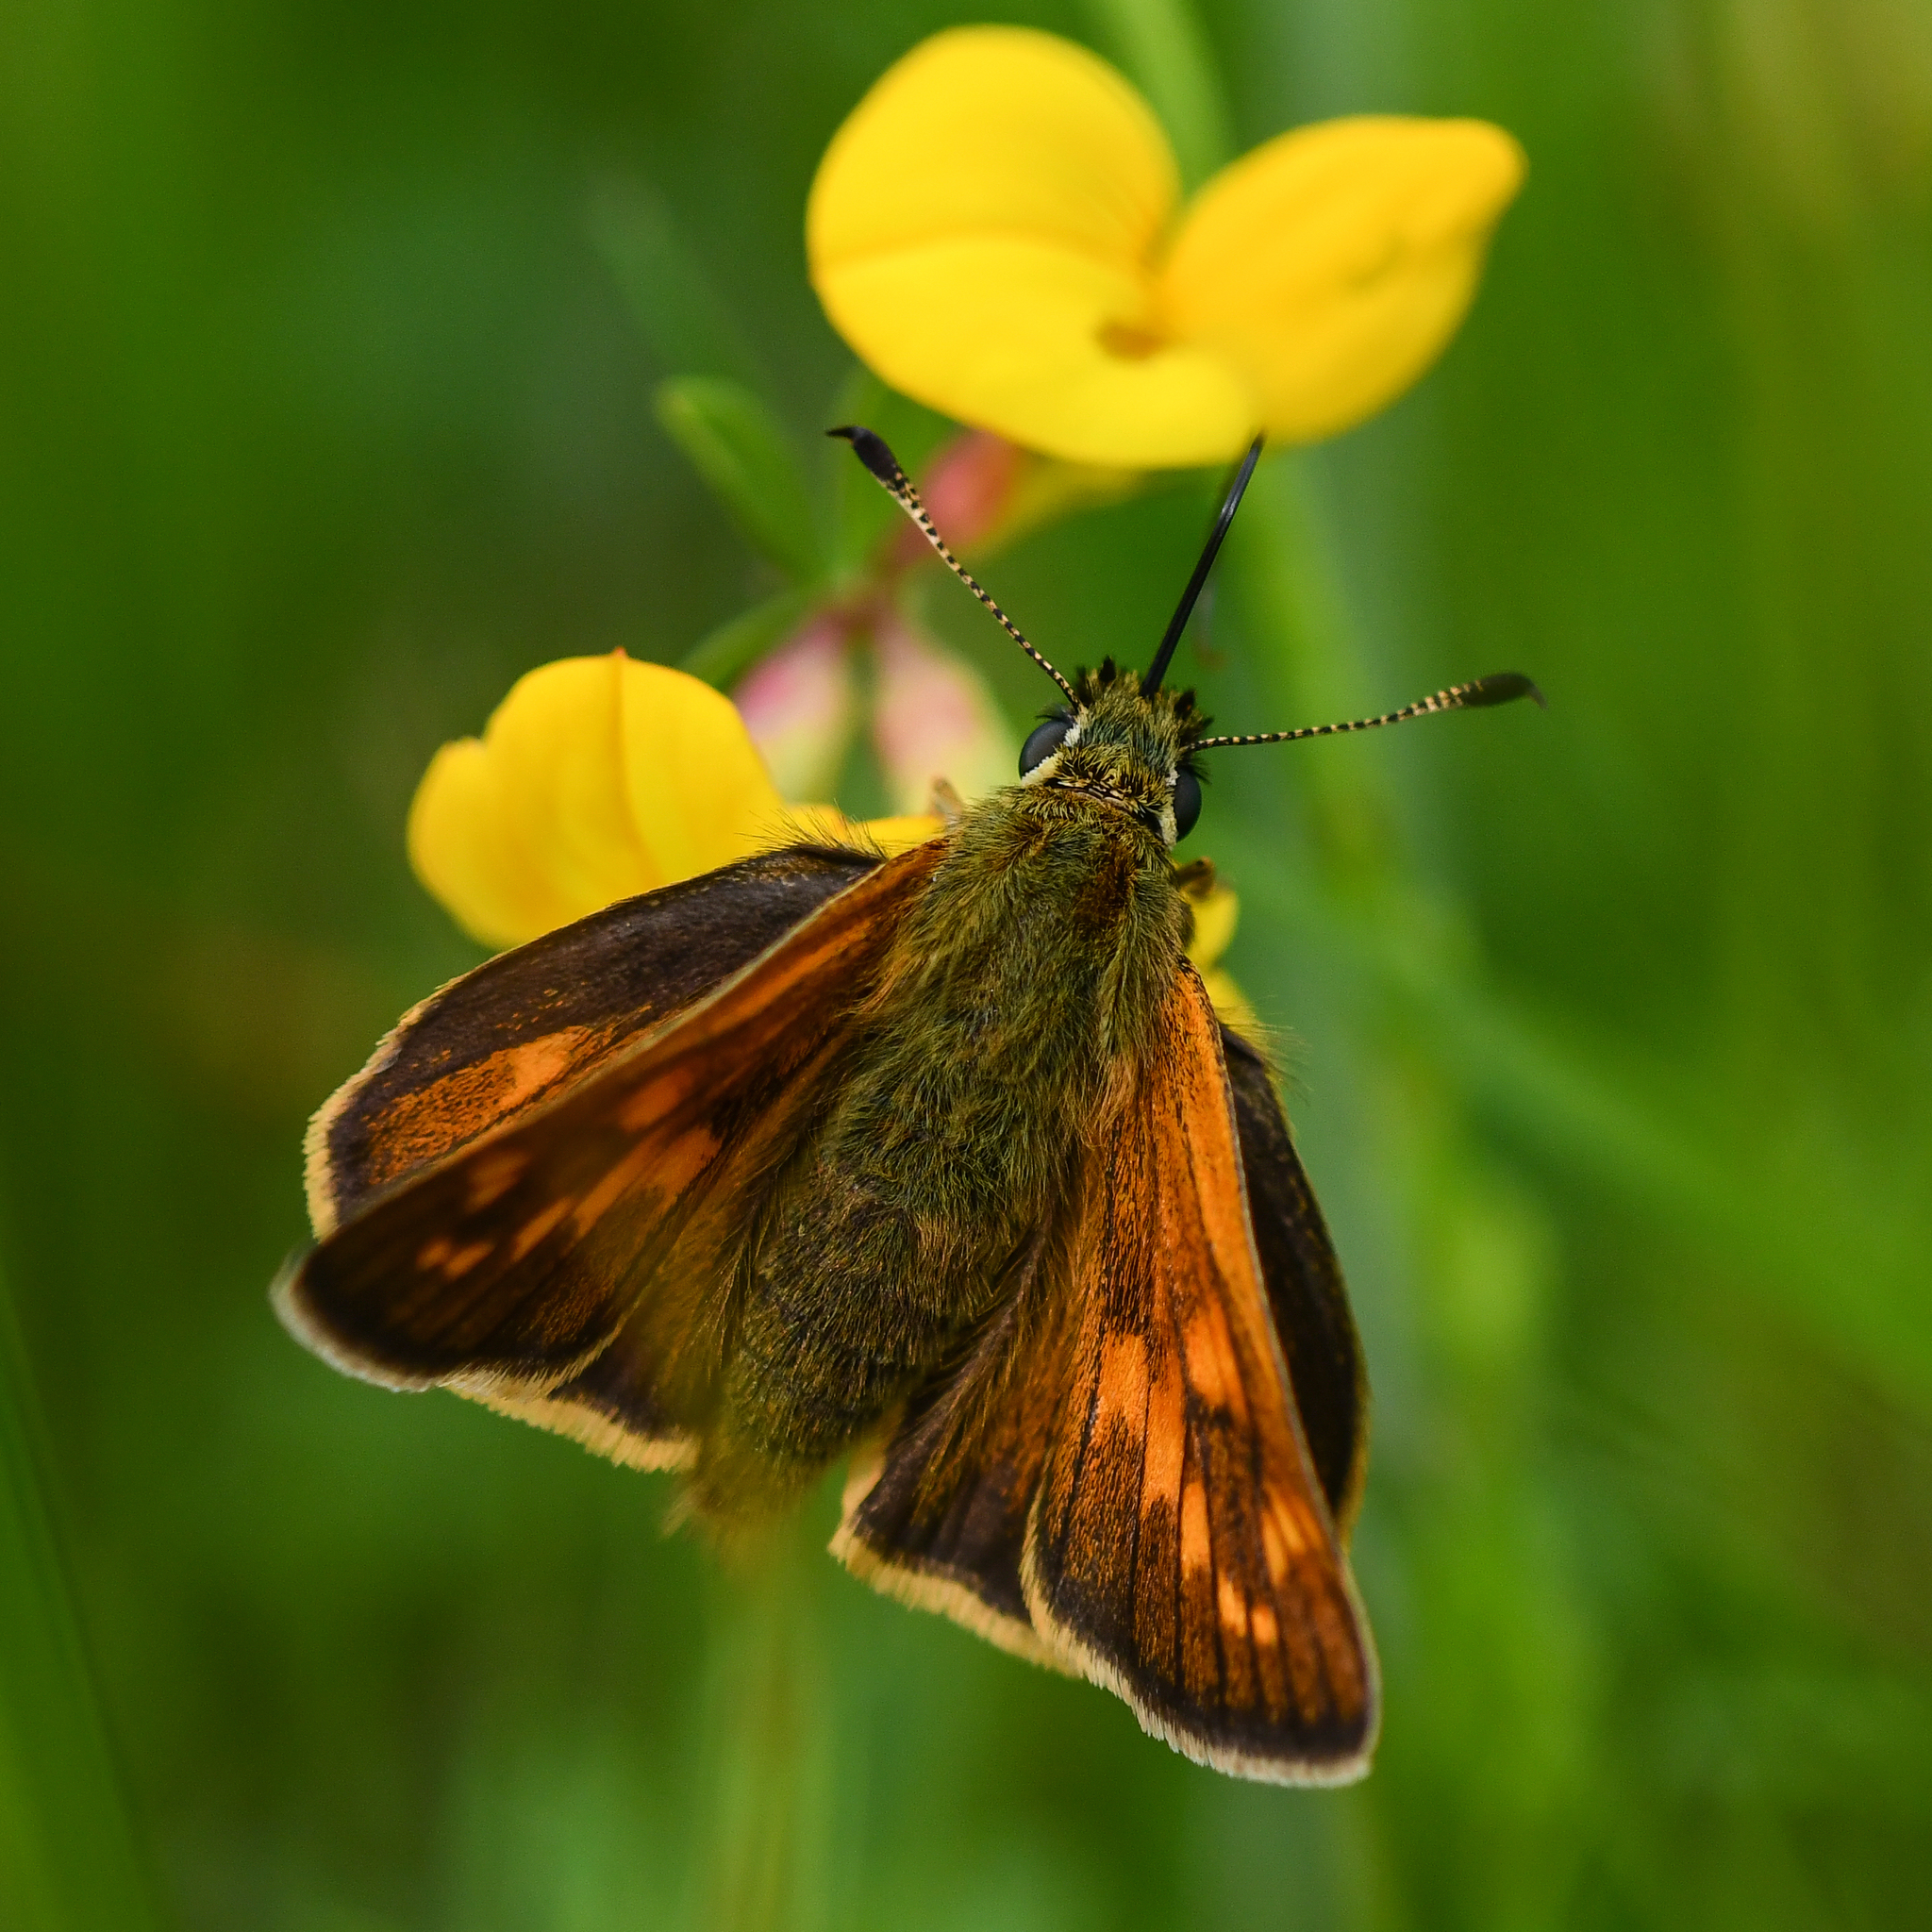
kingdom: Animalia
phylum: Arthropoda
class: Insecta
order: Lepidoptera
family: Hesperiidae
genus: Ochlodes
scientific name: Ochlodes venata
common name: Large skipper
